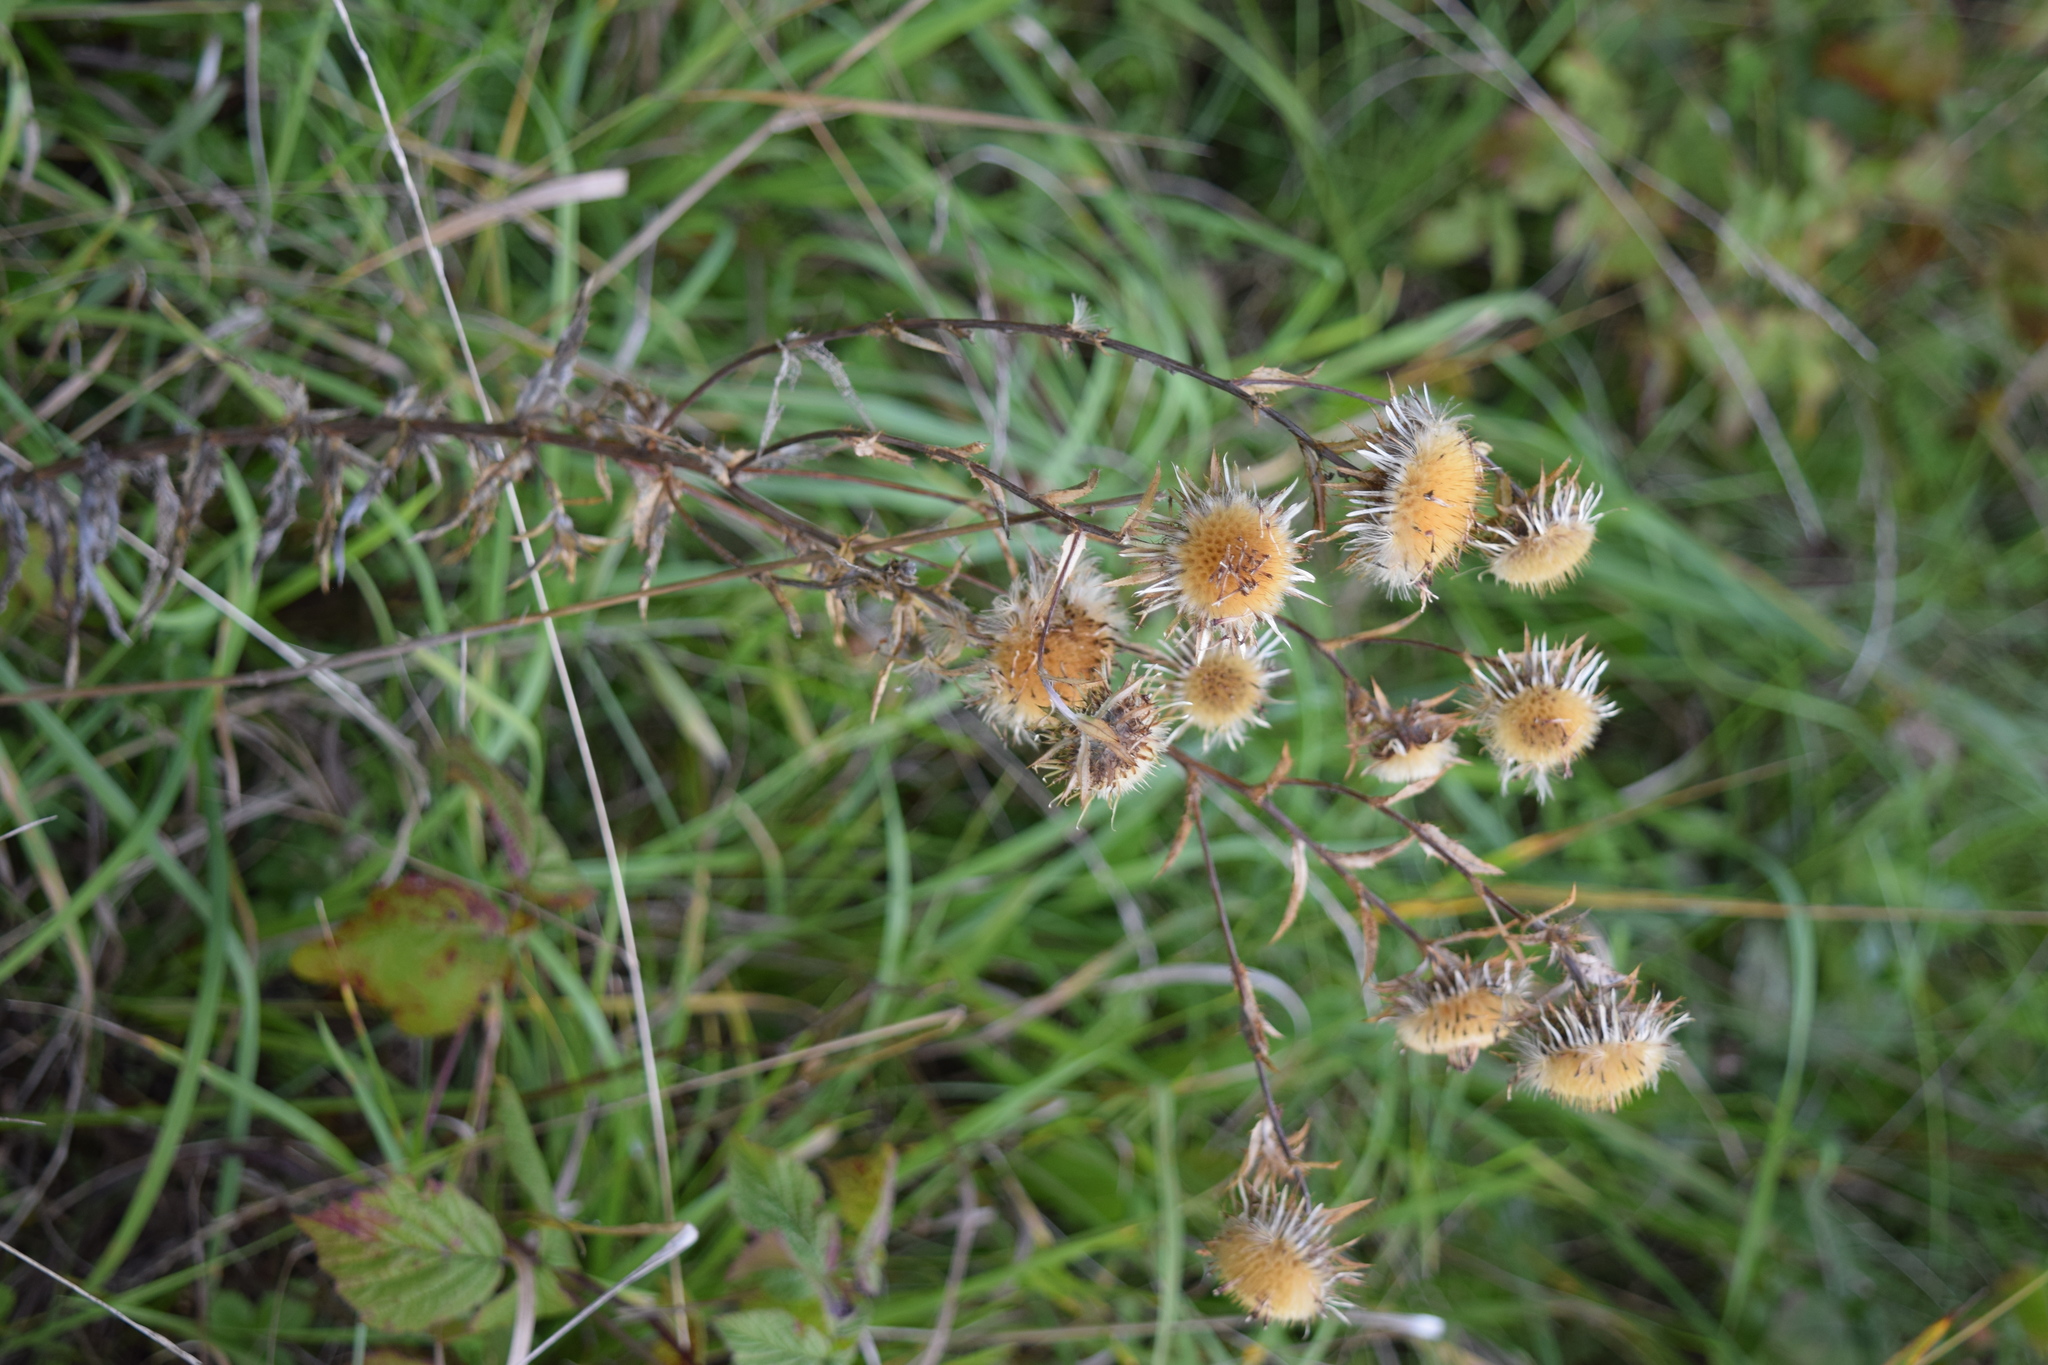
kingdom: Plantae
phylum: Tracheophyta
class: Magnoliopsida
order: Asterales
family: Asteraceae
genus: Carlina
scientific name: Carlina biebersteinii
